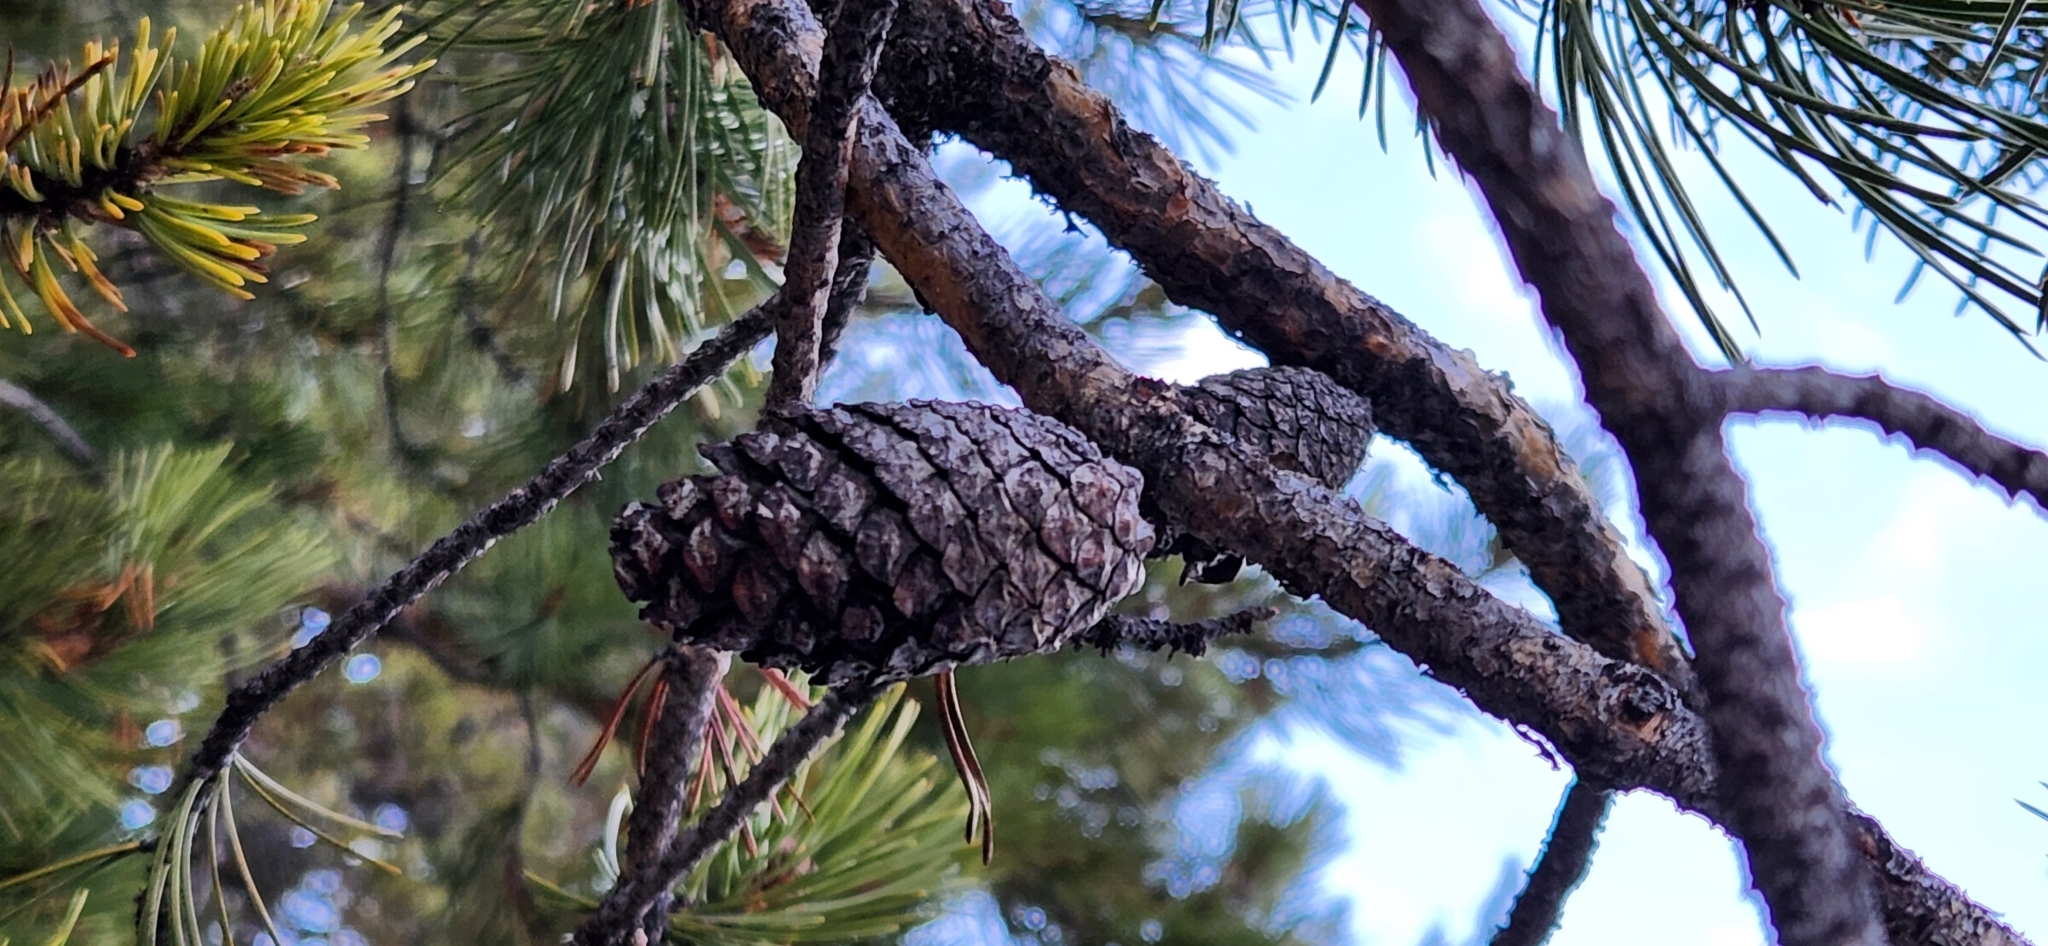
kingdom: Plantae
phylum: Tracheophyta
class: Pinopsida
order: Pinales
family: Pinaceae
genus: Pinus
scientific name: Pinus contorta
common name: Lodgepole pine
